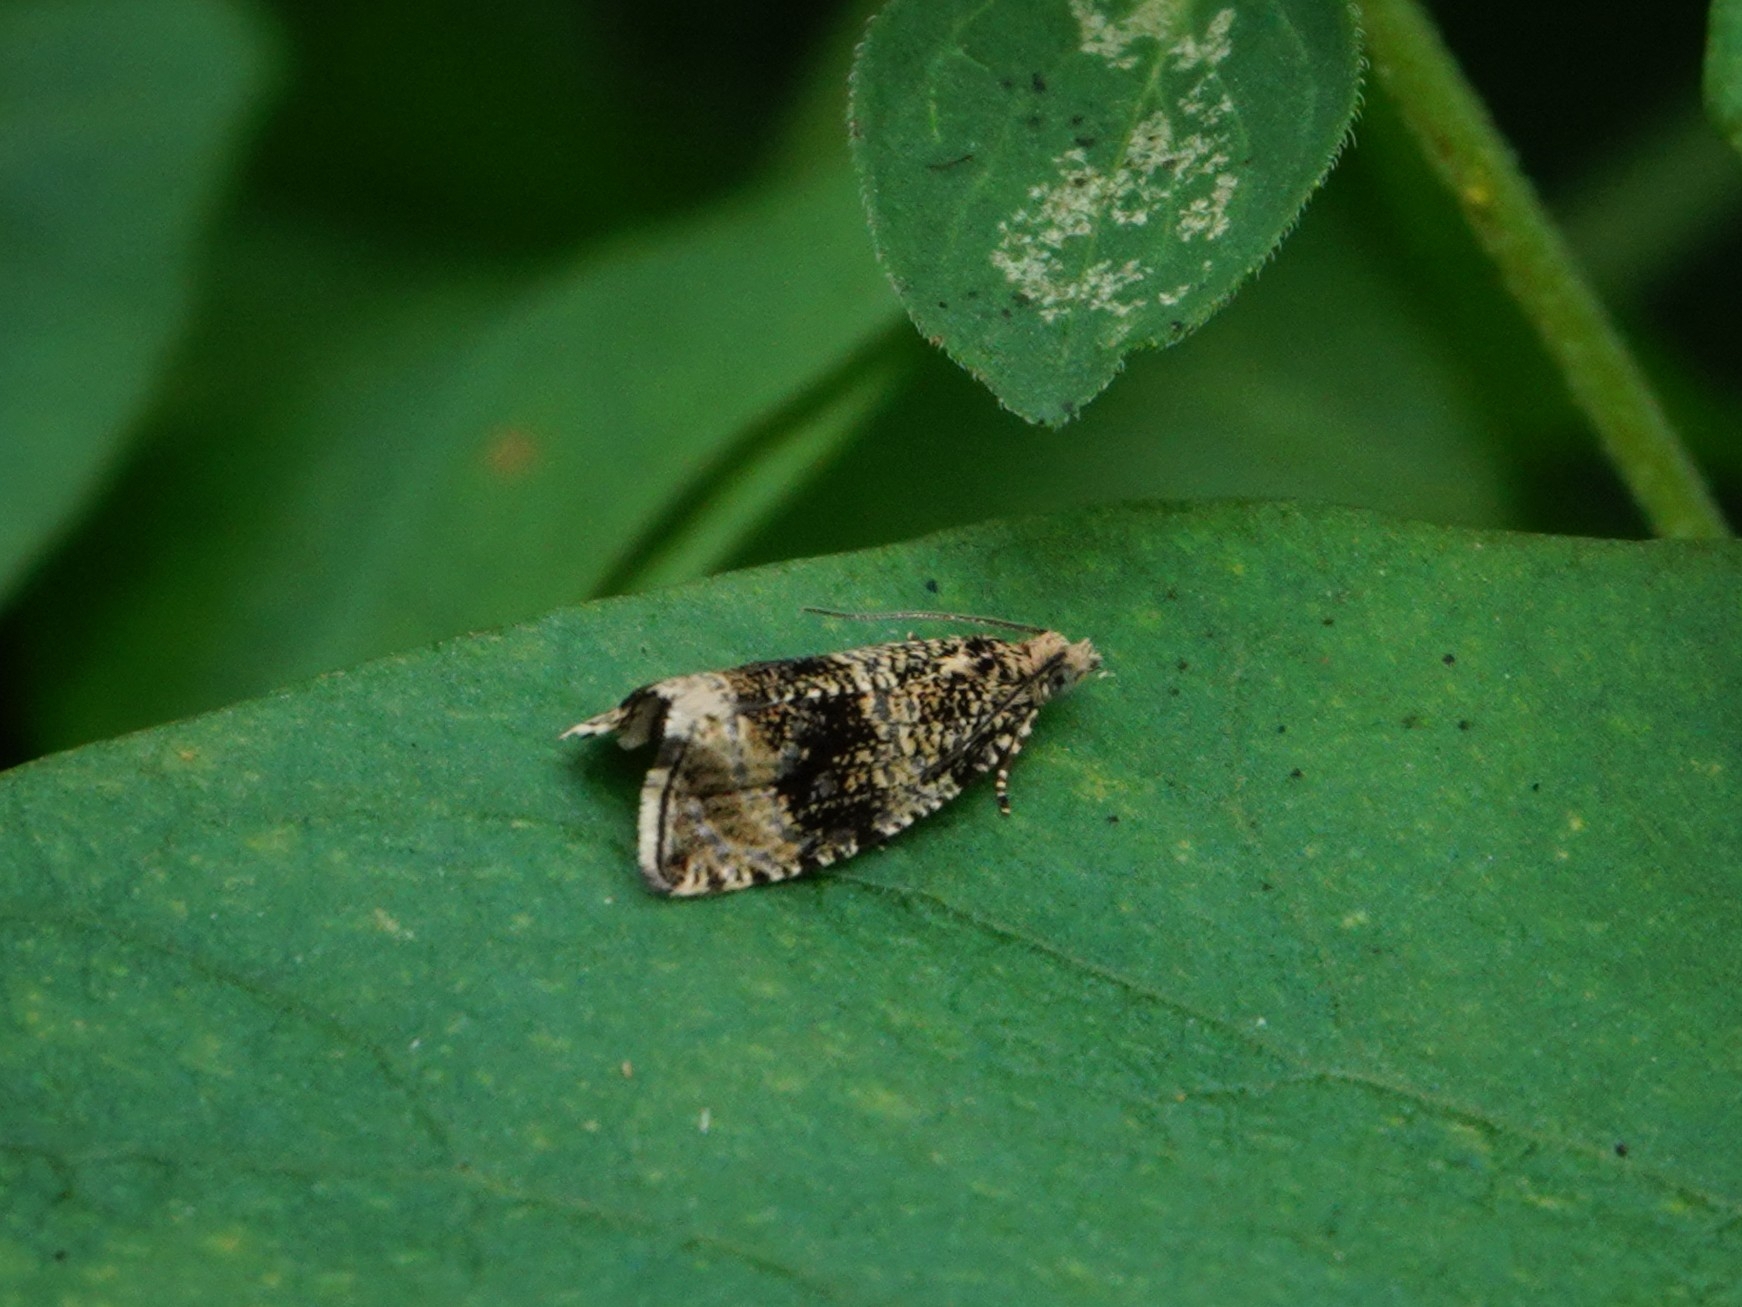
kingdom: Animalia
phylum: Arthropoda
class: Insecta
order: Lepidoptera
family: Tortricidae
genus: Syricoris
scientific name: Syricoris lacunana
